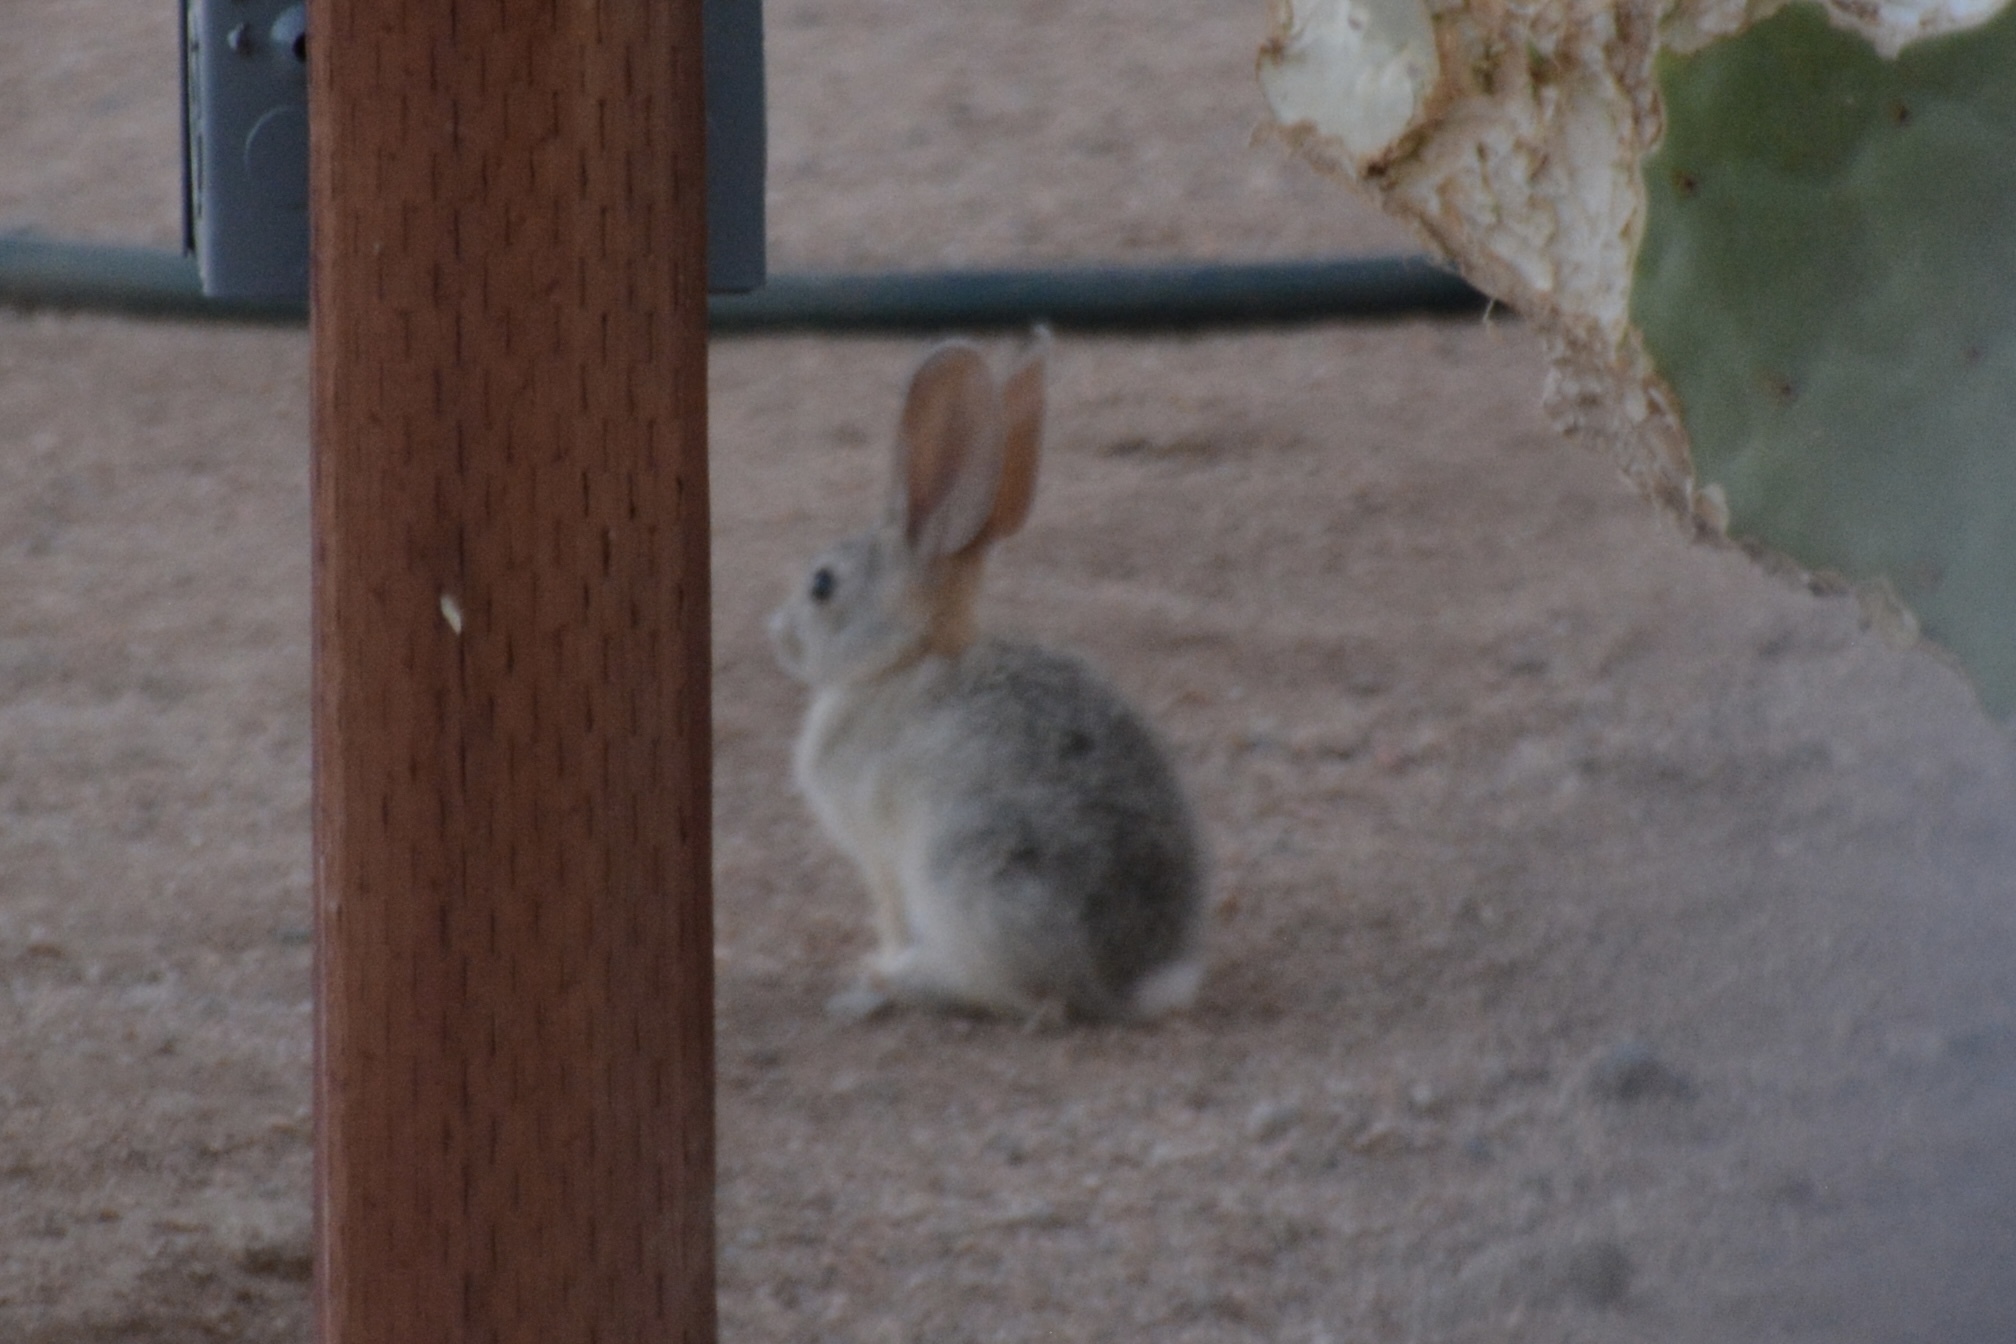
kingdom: Animalia
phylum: Chordata
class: Mammalia
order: Lagomorpha
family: Leporidae
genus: Sylvilagus
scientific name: Sylvilagus audubonii
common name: Desert cottontail
